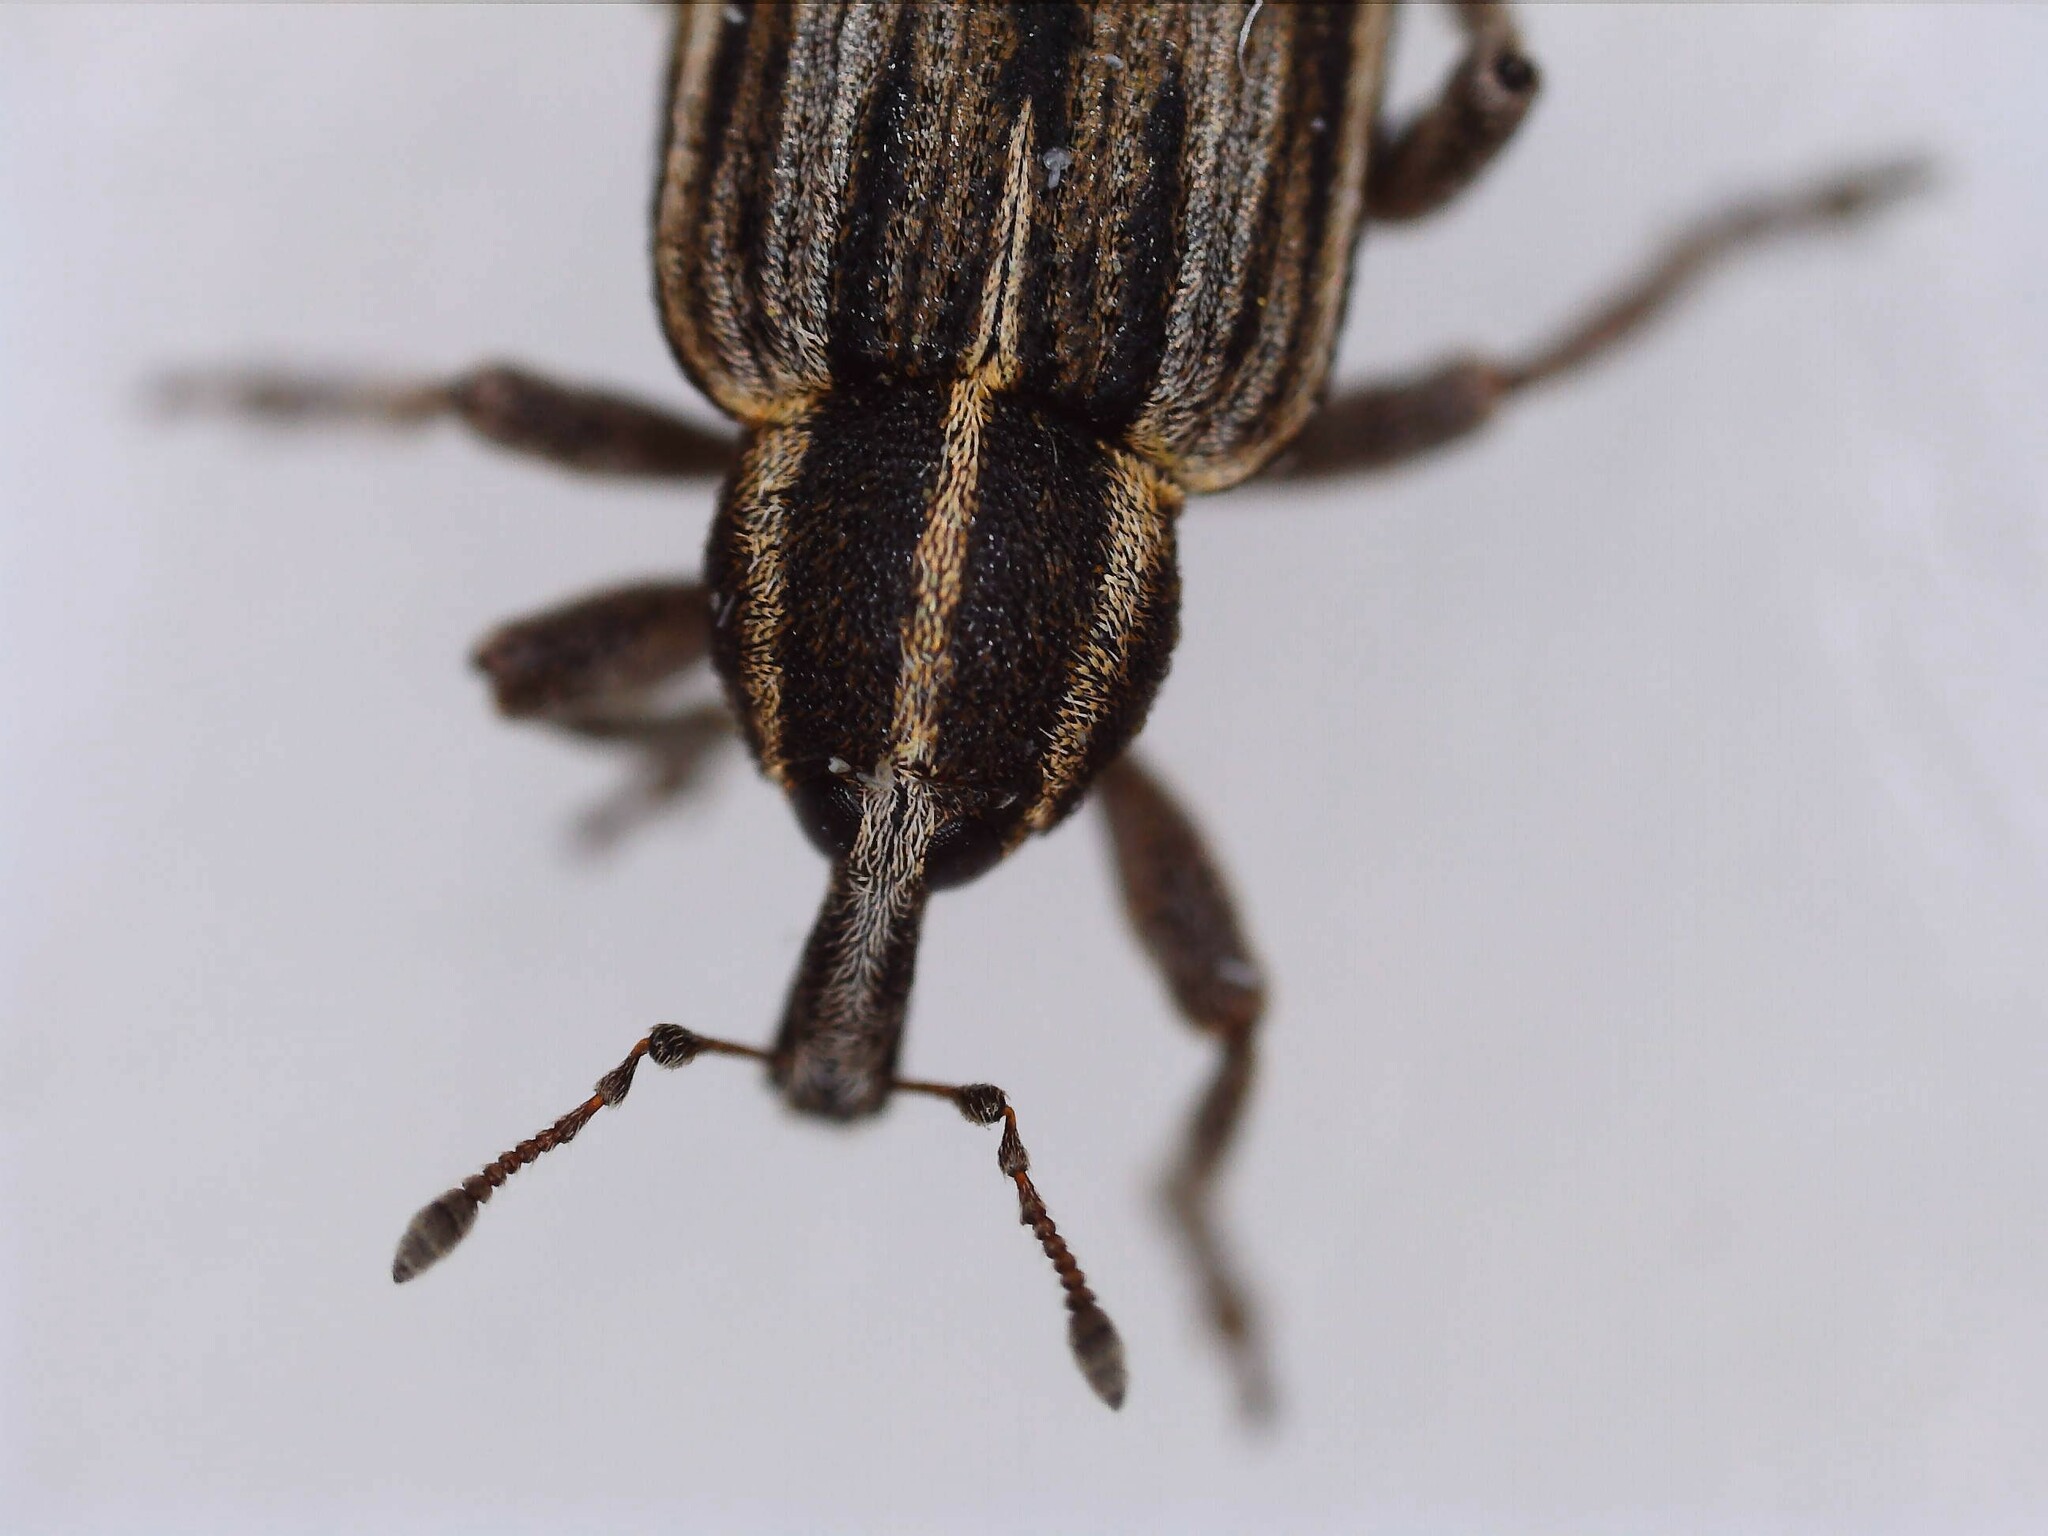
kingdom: Animalia
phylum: Arthropoda
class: Insecta
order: Coleoptera
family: Curculionidae
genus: Hypera
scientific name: Hypera arator
